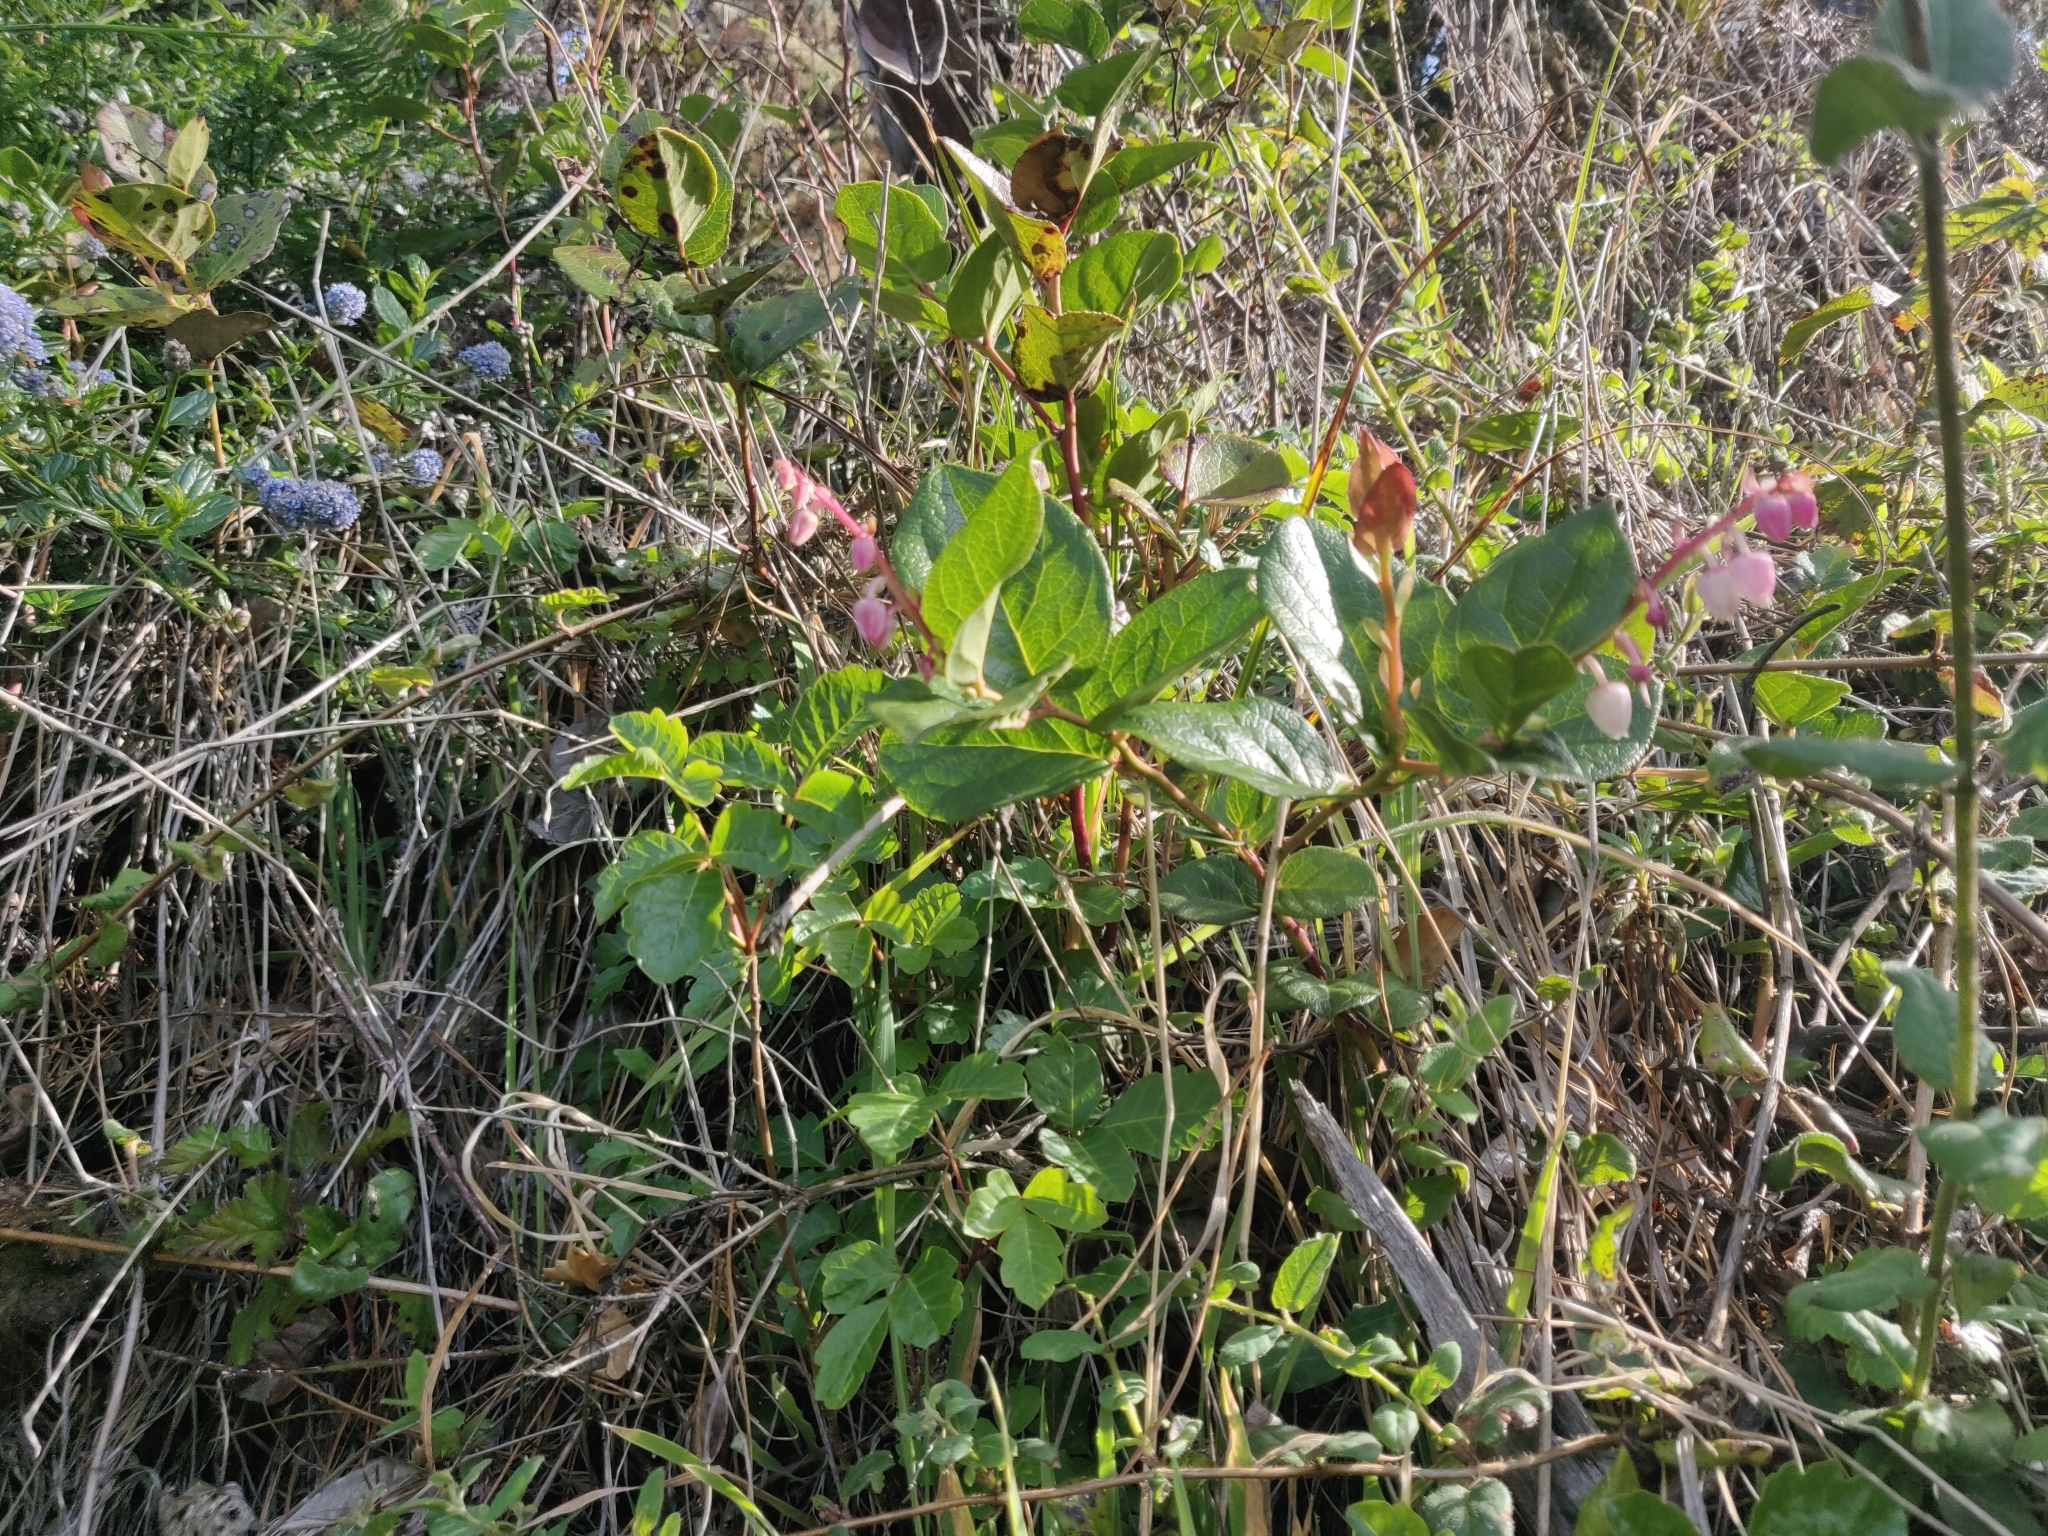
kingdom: Plantae
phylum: Tracheophyta
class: Magnoliopsida
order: Ericales
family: Ericaceae
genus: Gaultheria
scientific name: Gaultheria shallon
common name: Shallon
